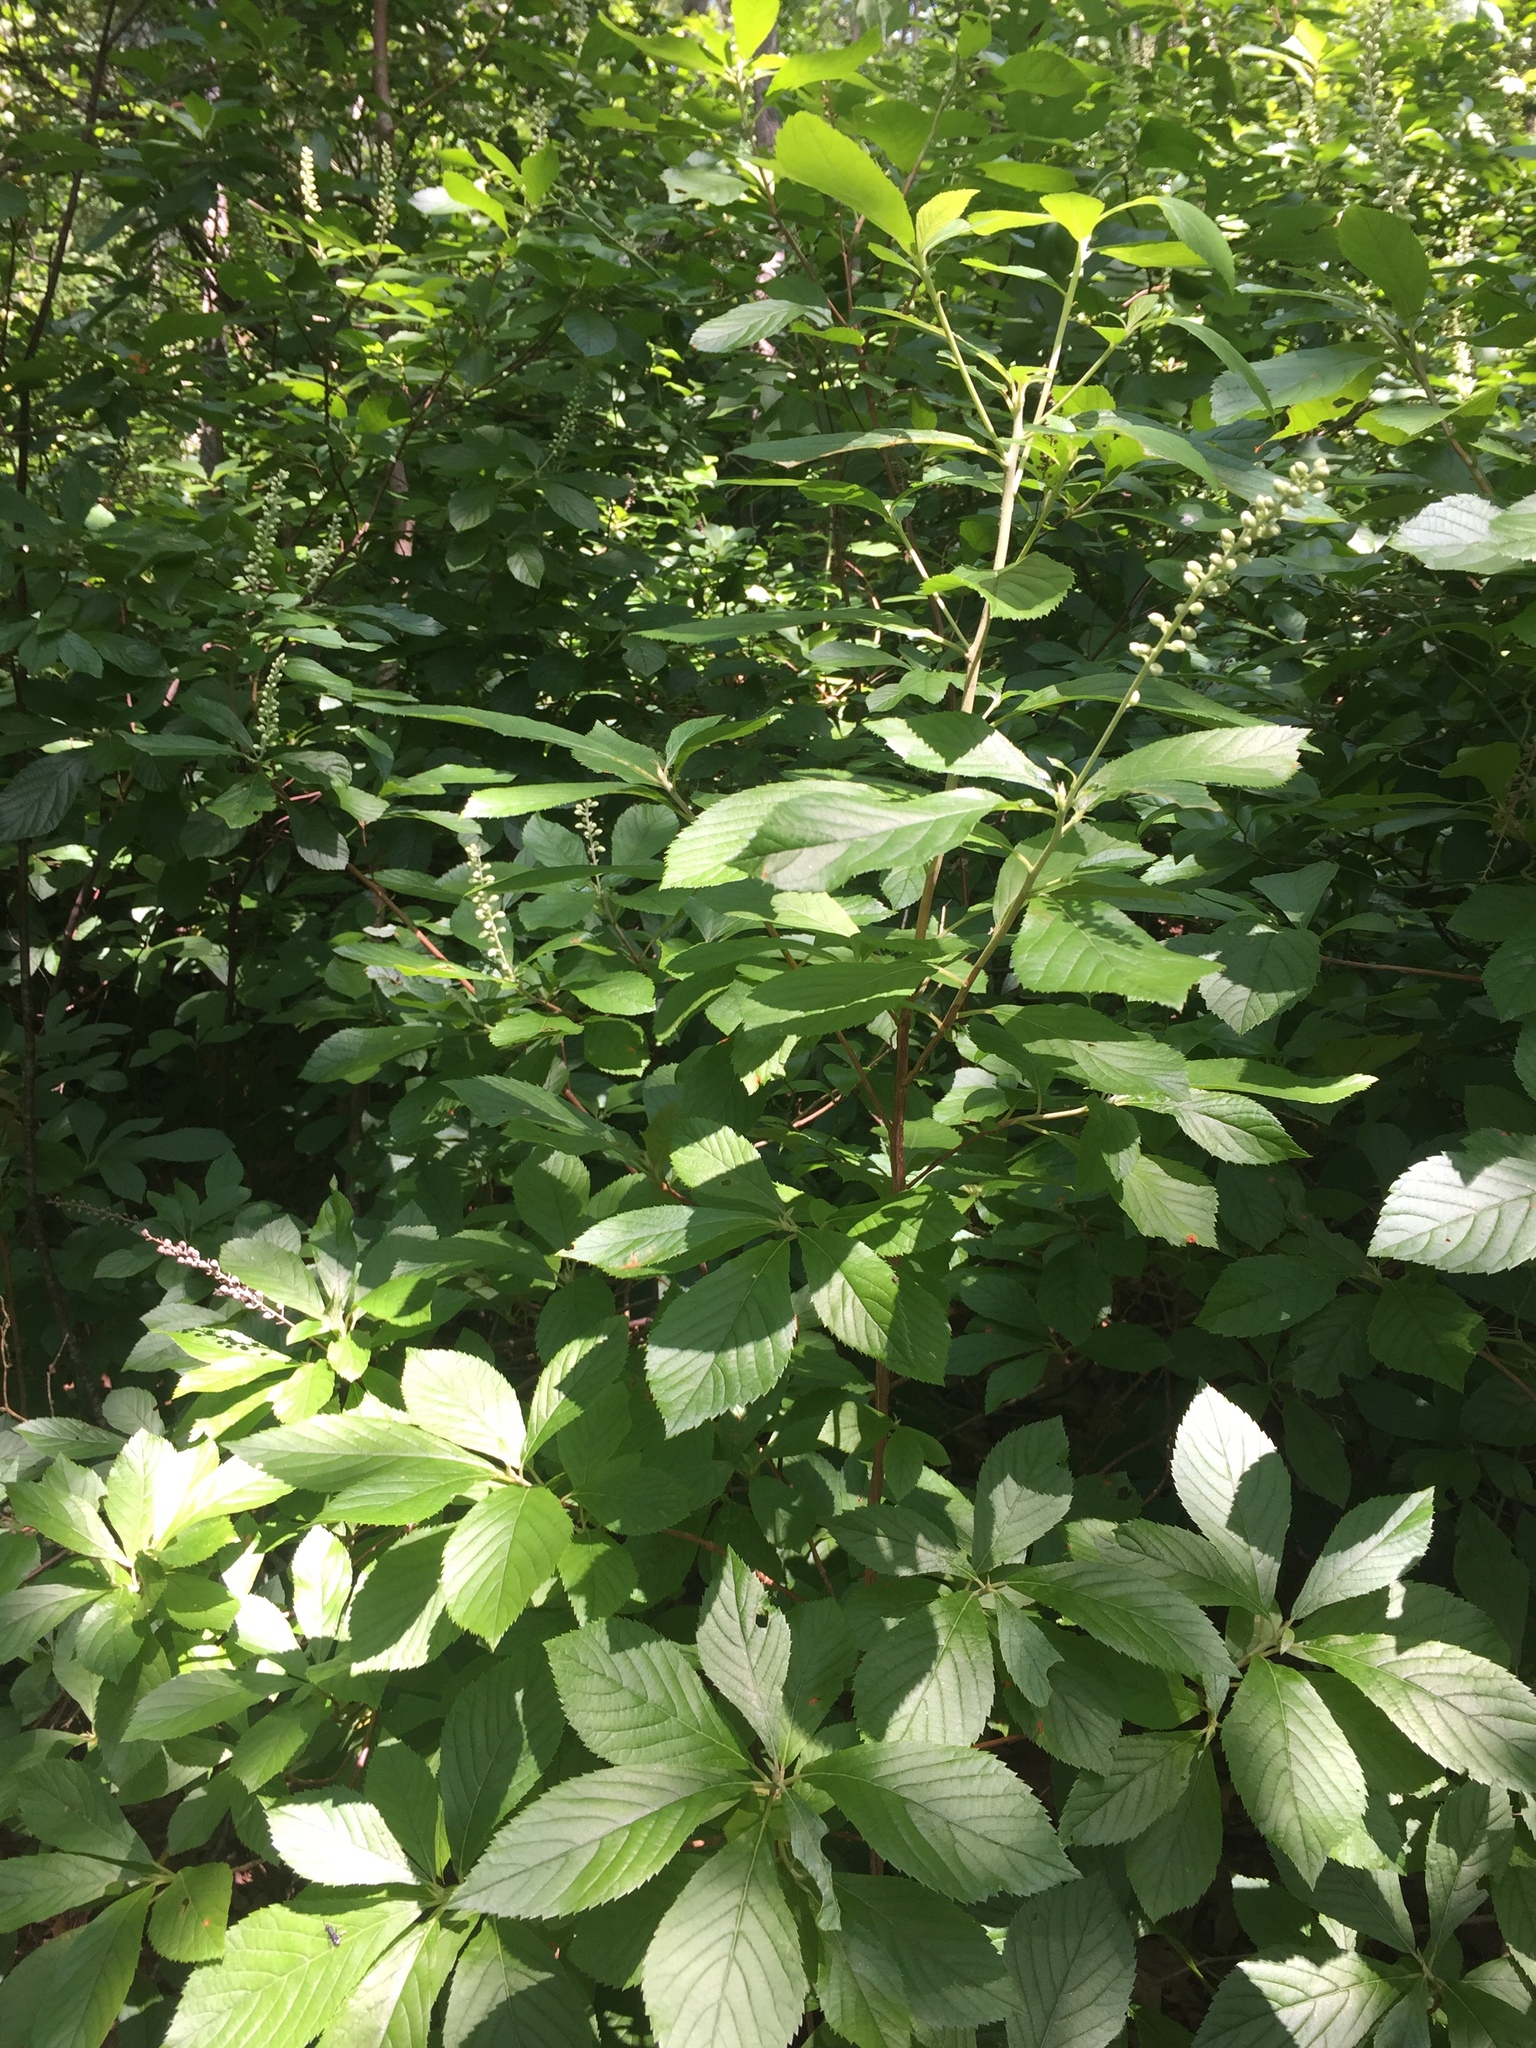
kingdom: Plantae
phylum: Tracheophyta
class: Magnoliopsida
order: Ericales
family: Clethraceae
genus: Clethra
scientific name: Clethra alnifolia
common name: Sweet pepperbush
